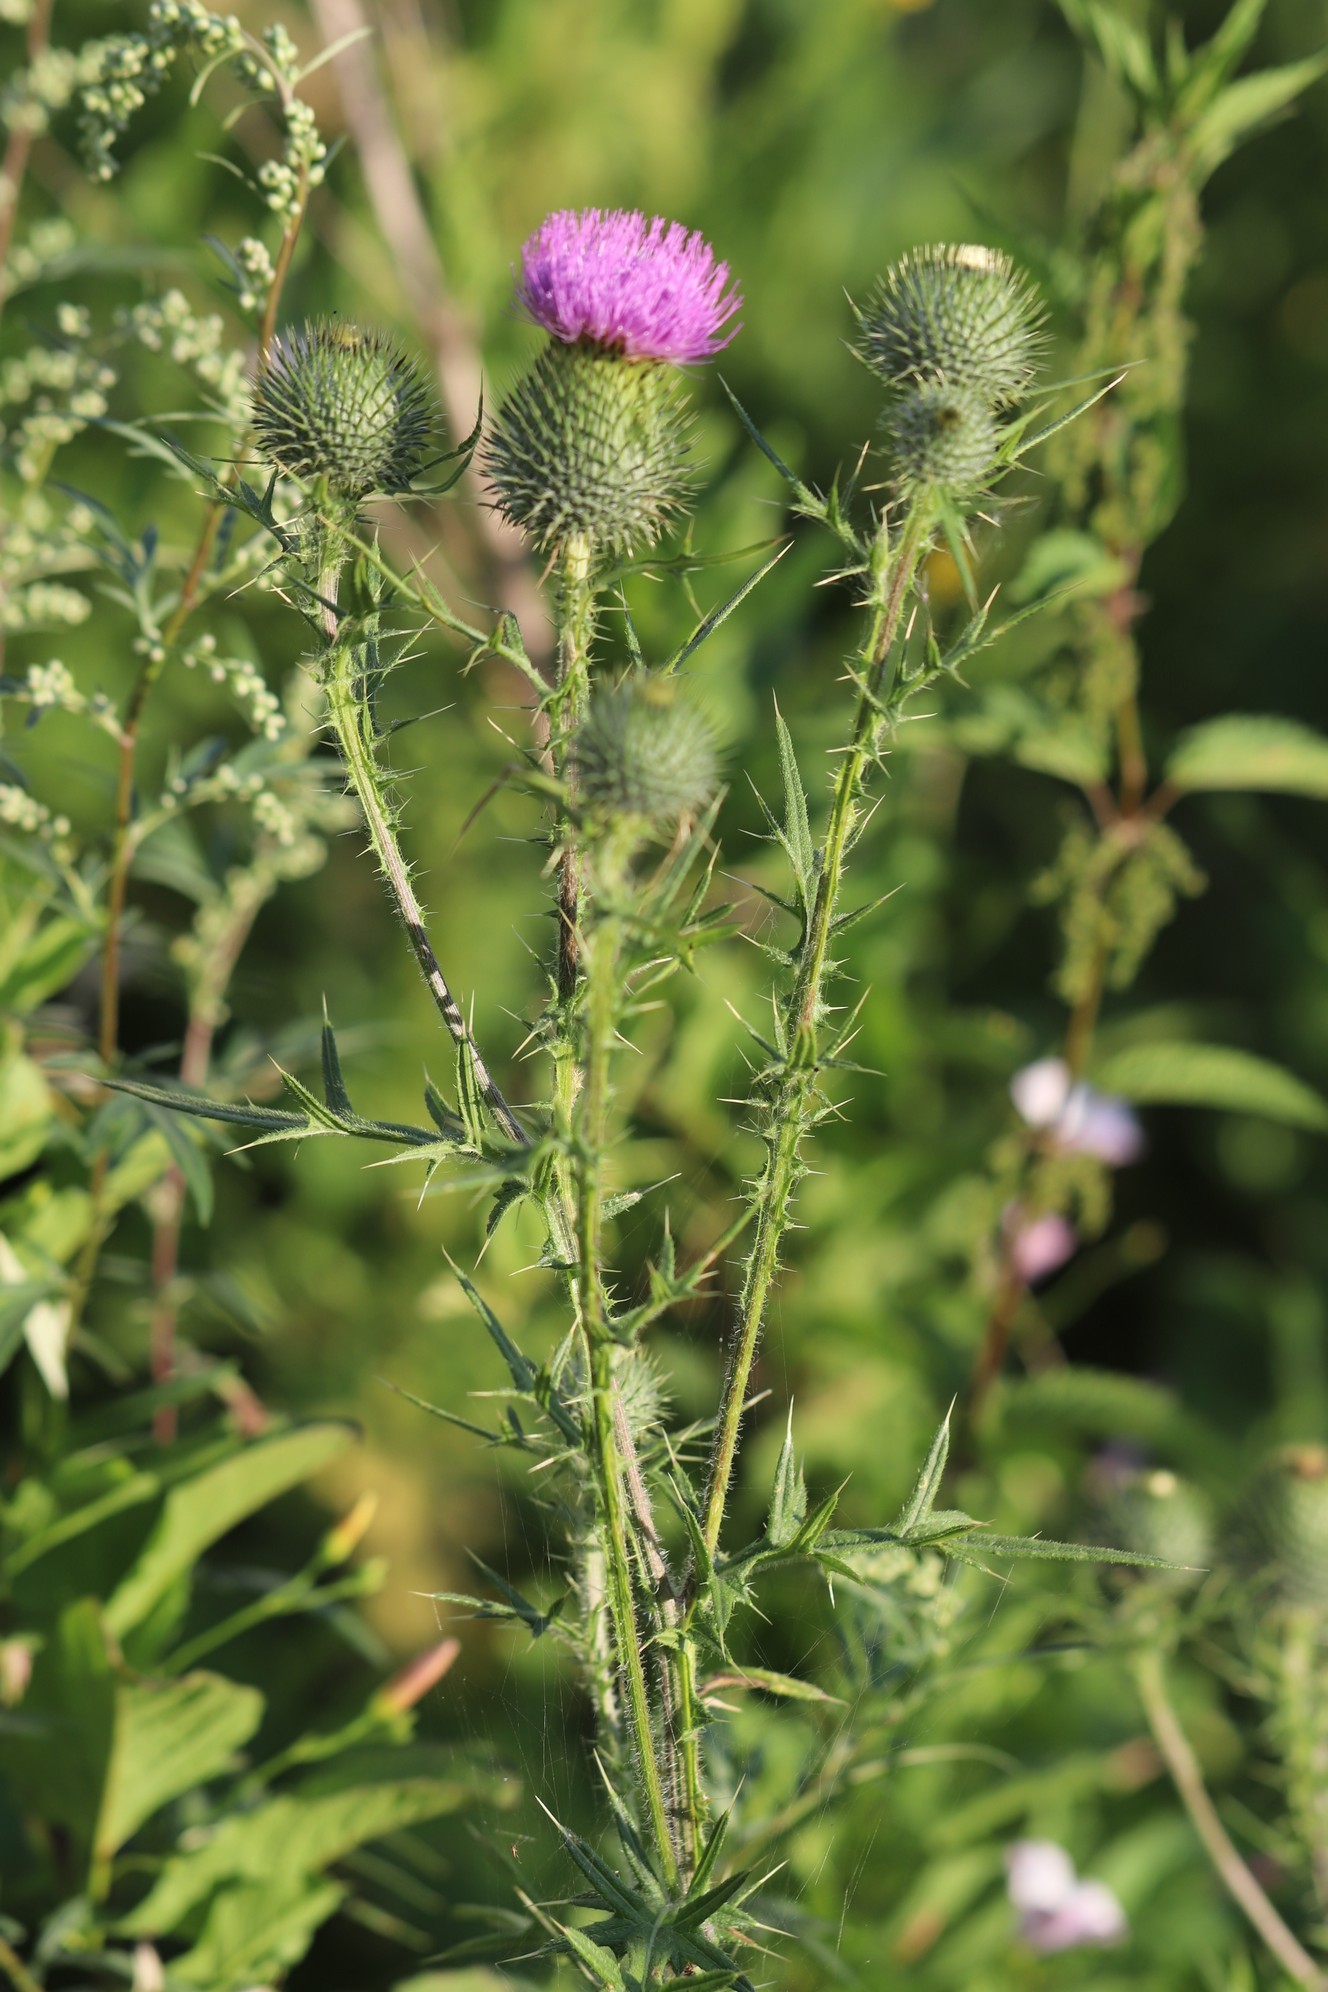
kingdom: Plantae
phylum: Tracheophyta
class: Magnoliopsida
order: Asterales
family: Asteraceae
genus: Cirsium
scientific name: Cirsium vulgare
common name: Bull thistle
